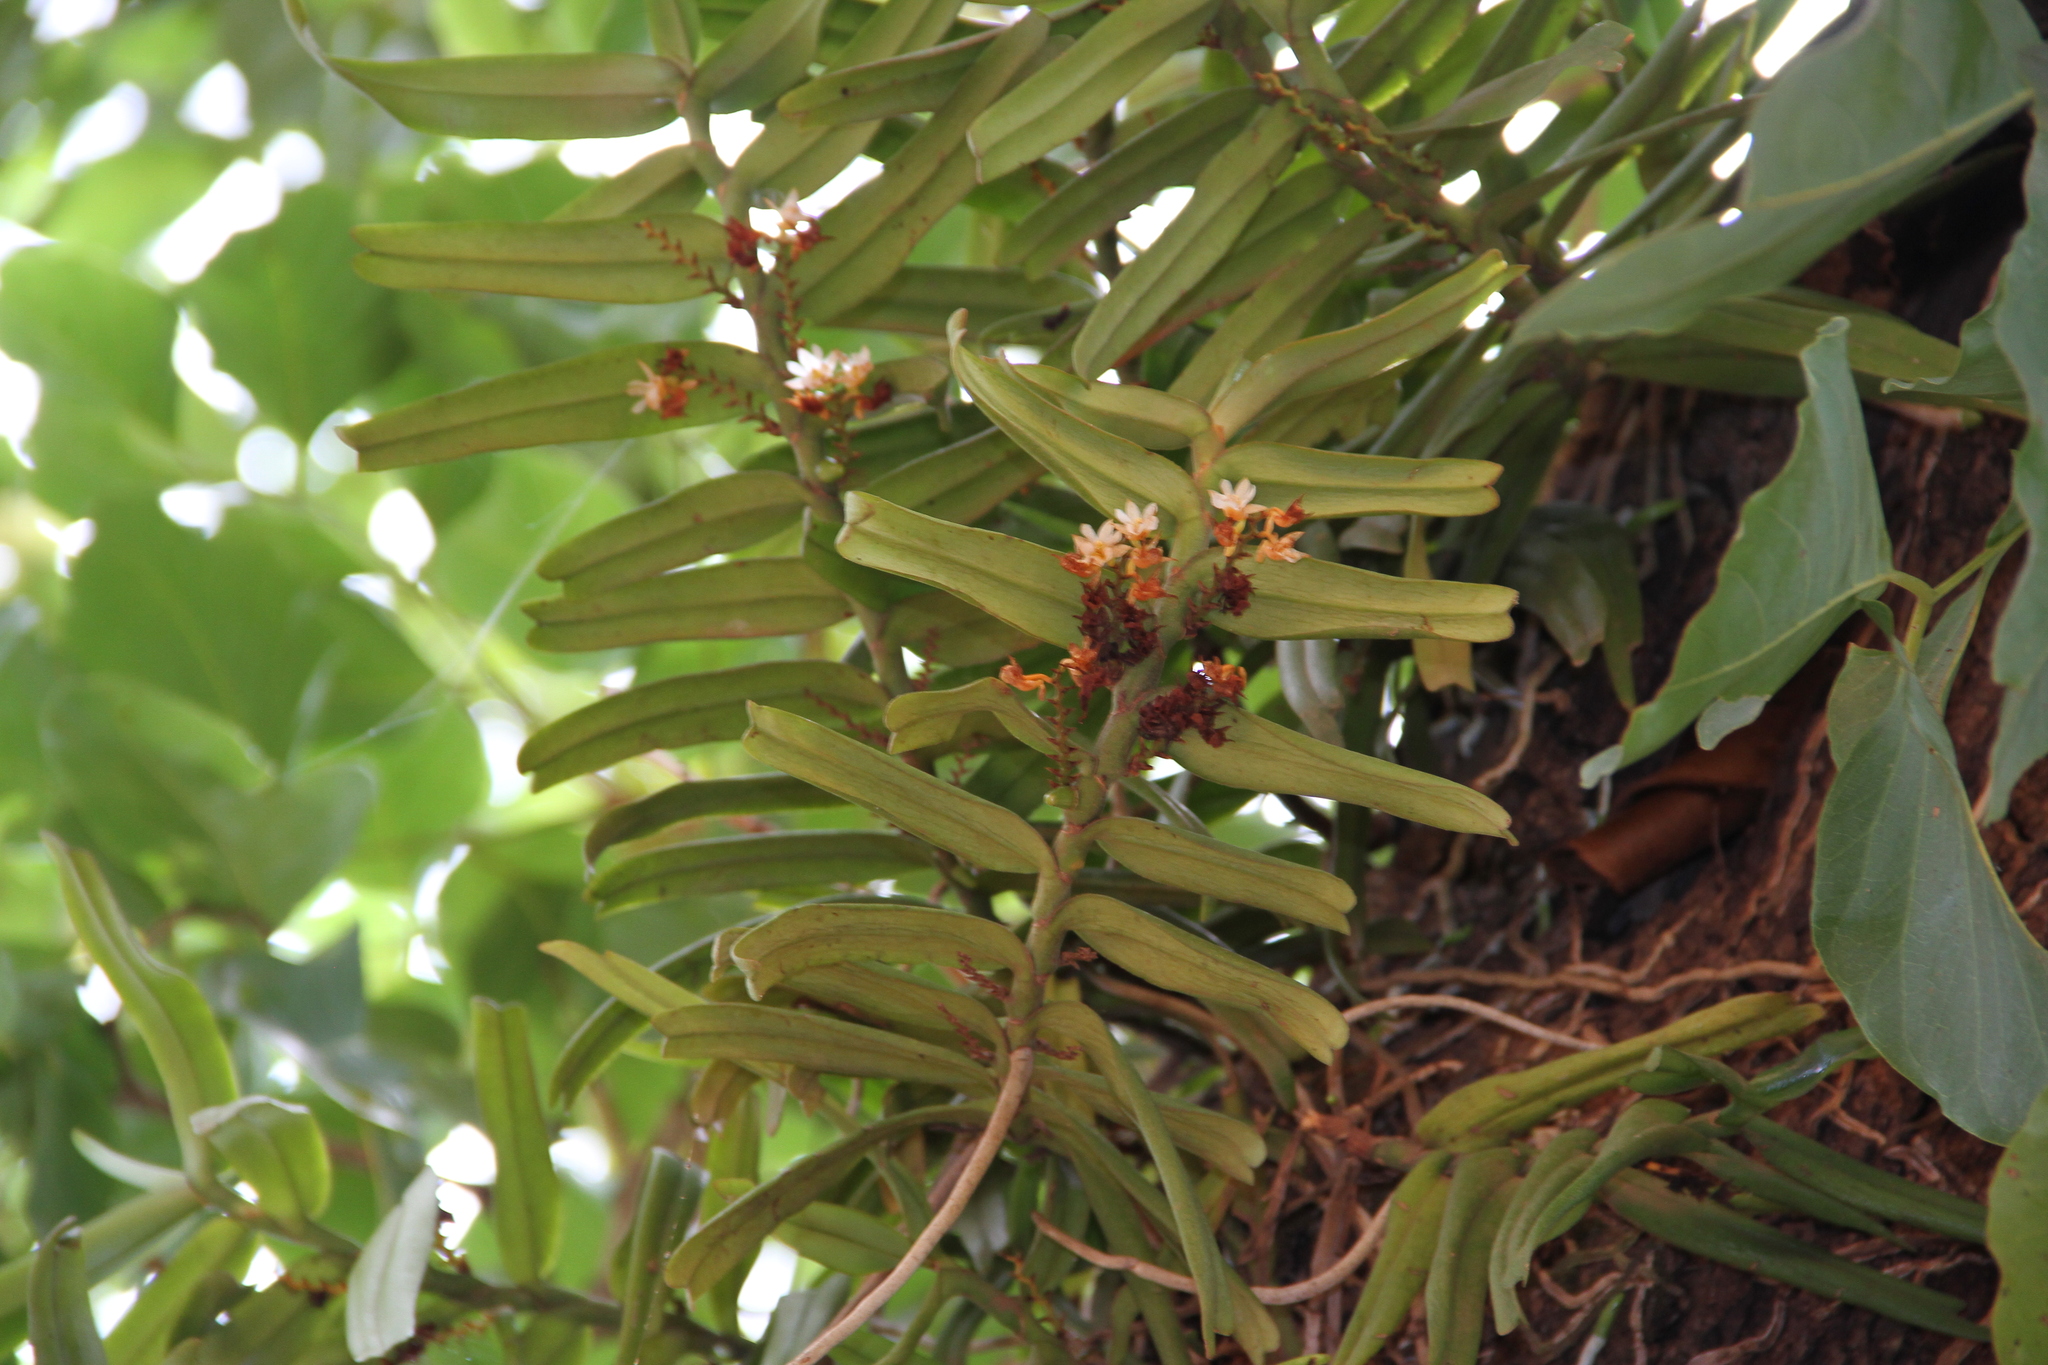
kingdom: Plantae
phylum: Tracheophyta
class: Liliopsida
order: Asparagales
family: Orchidaceae
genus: Calyptrochilum
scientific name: Calyptrochilum christyanum
